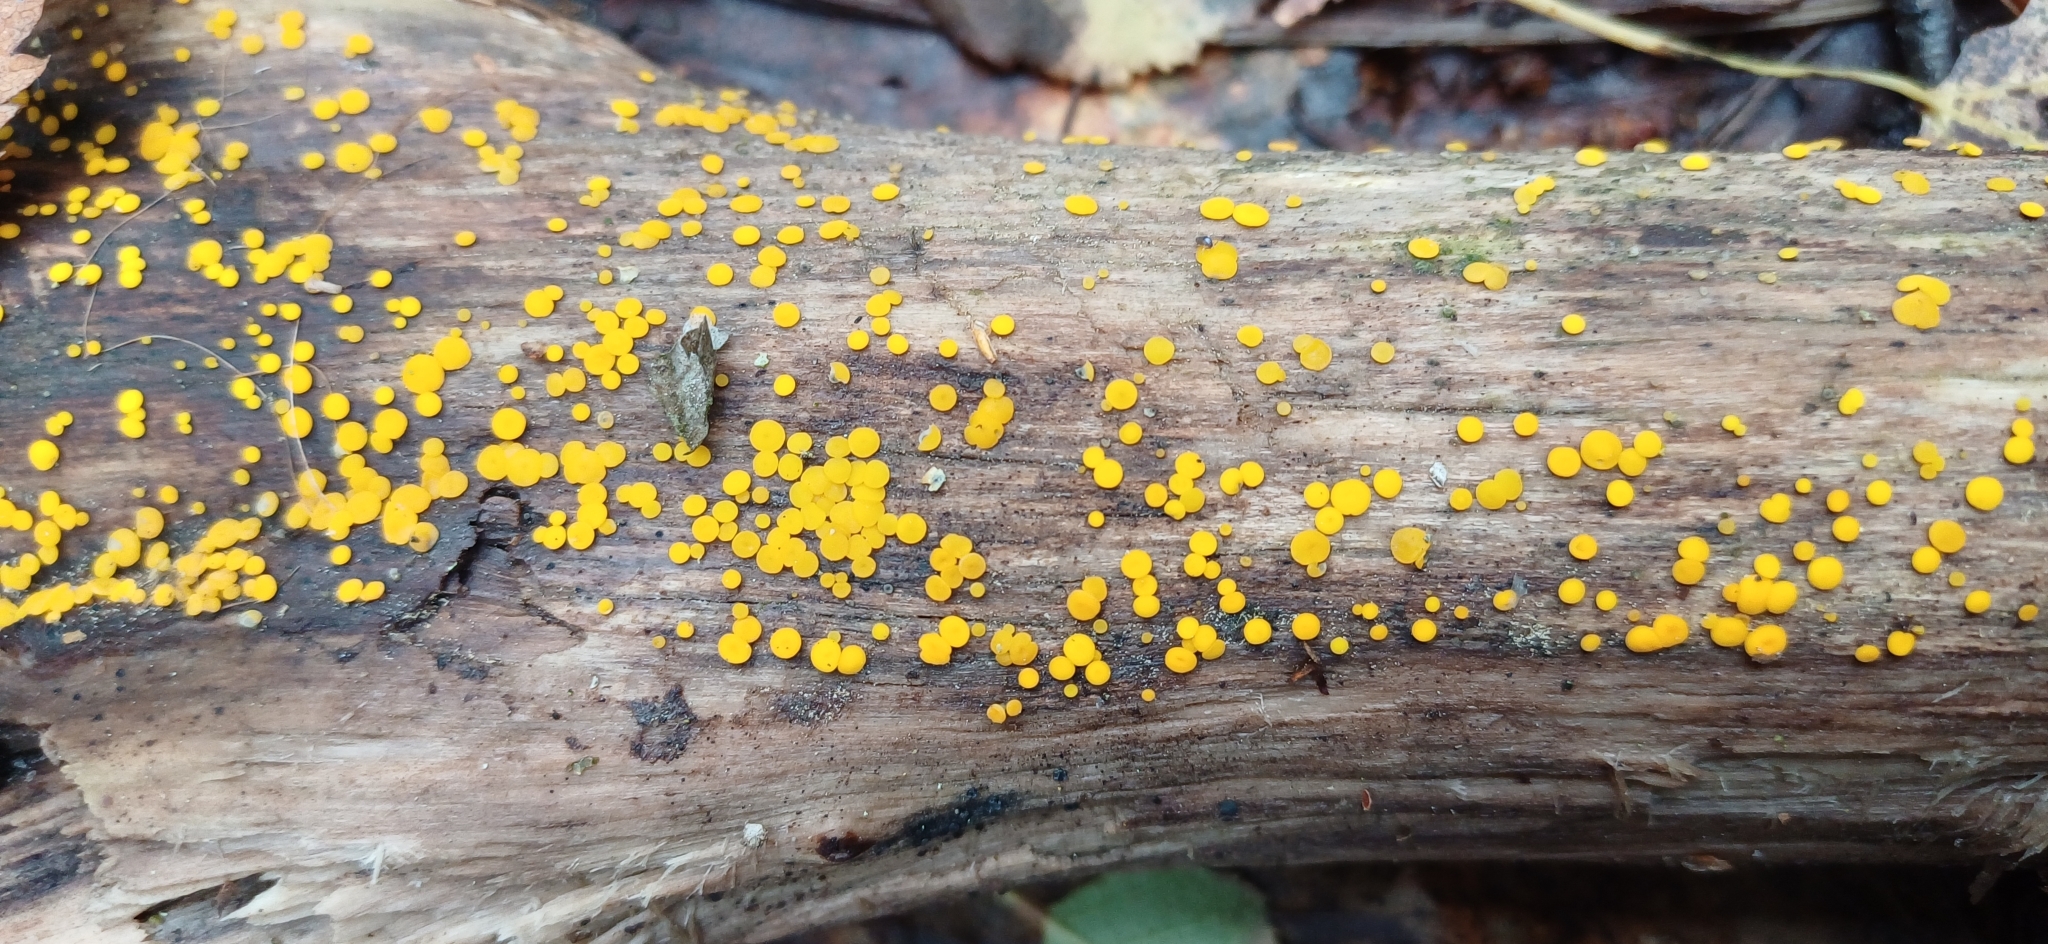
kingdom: Fungi
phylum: Ascomycota
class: Leotiomycetes
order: Helotiales
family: Pezizellaceae
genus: Calycina
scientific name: Calycina citrina
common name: Yellow fairy cups
